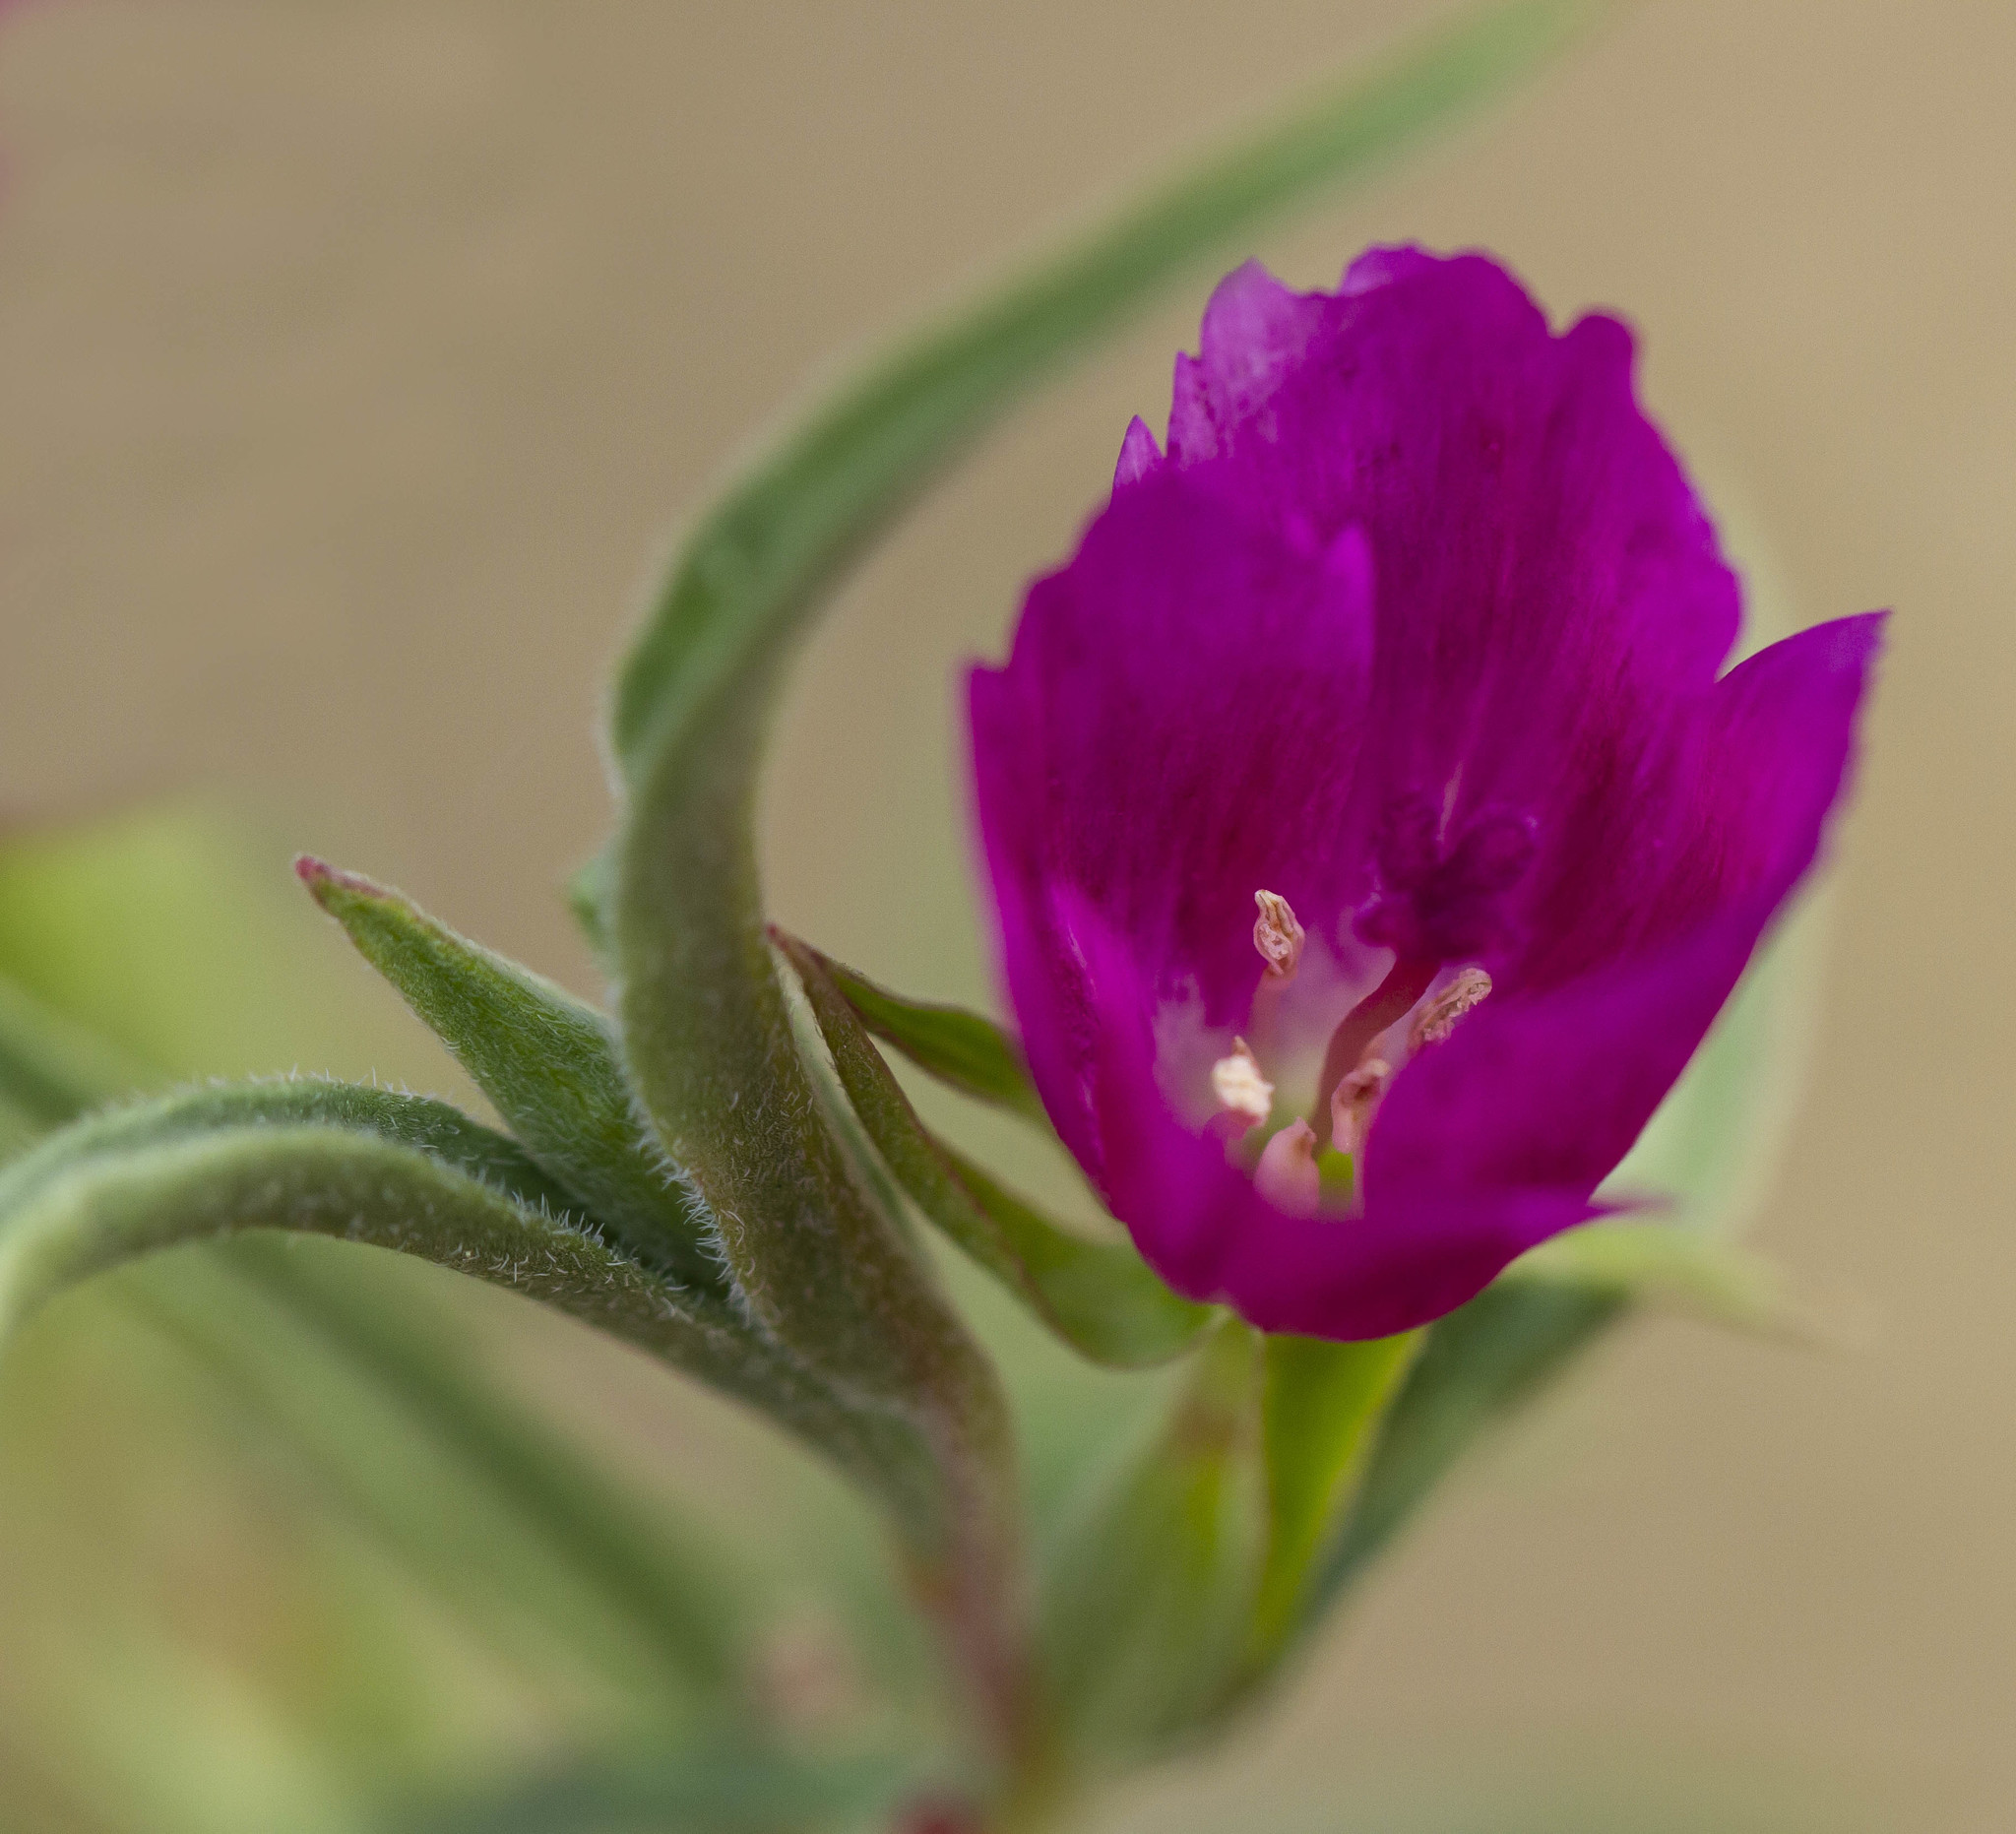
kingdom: Plantae
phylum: Tracheophyta
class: Magnoliopsida
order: Myrtales
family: Onagraceae
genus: Clarkia
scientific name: Clarkia purpurea
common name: Purple clarkia
